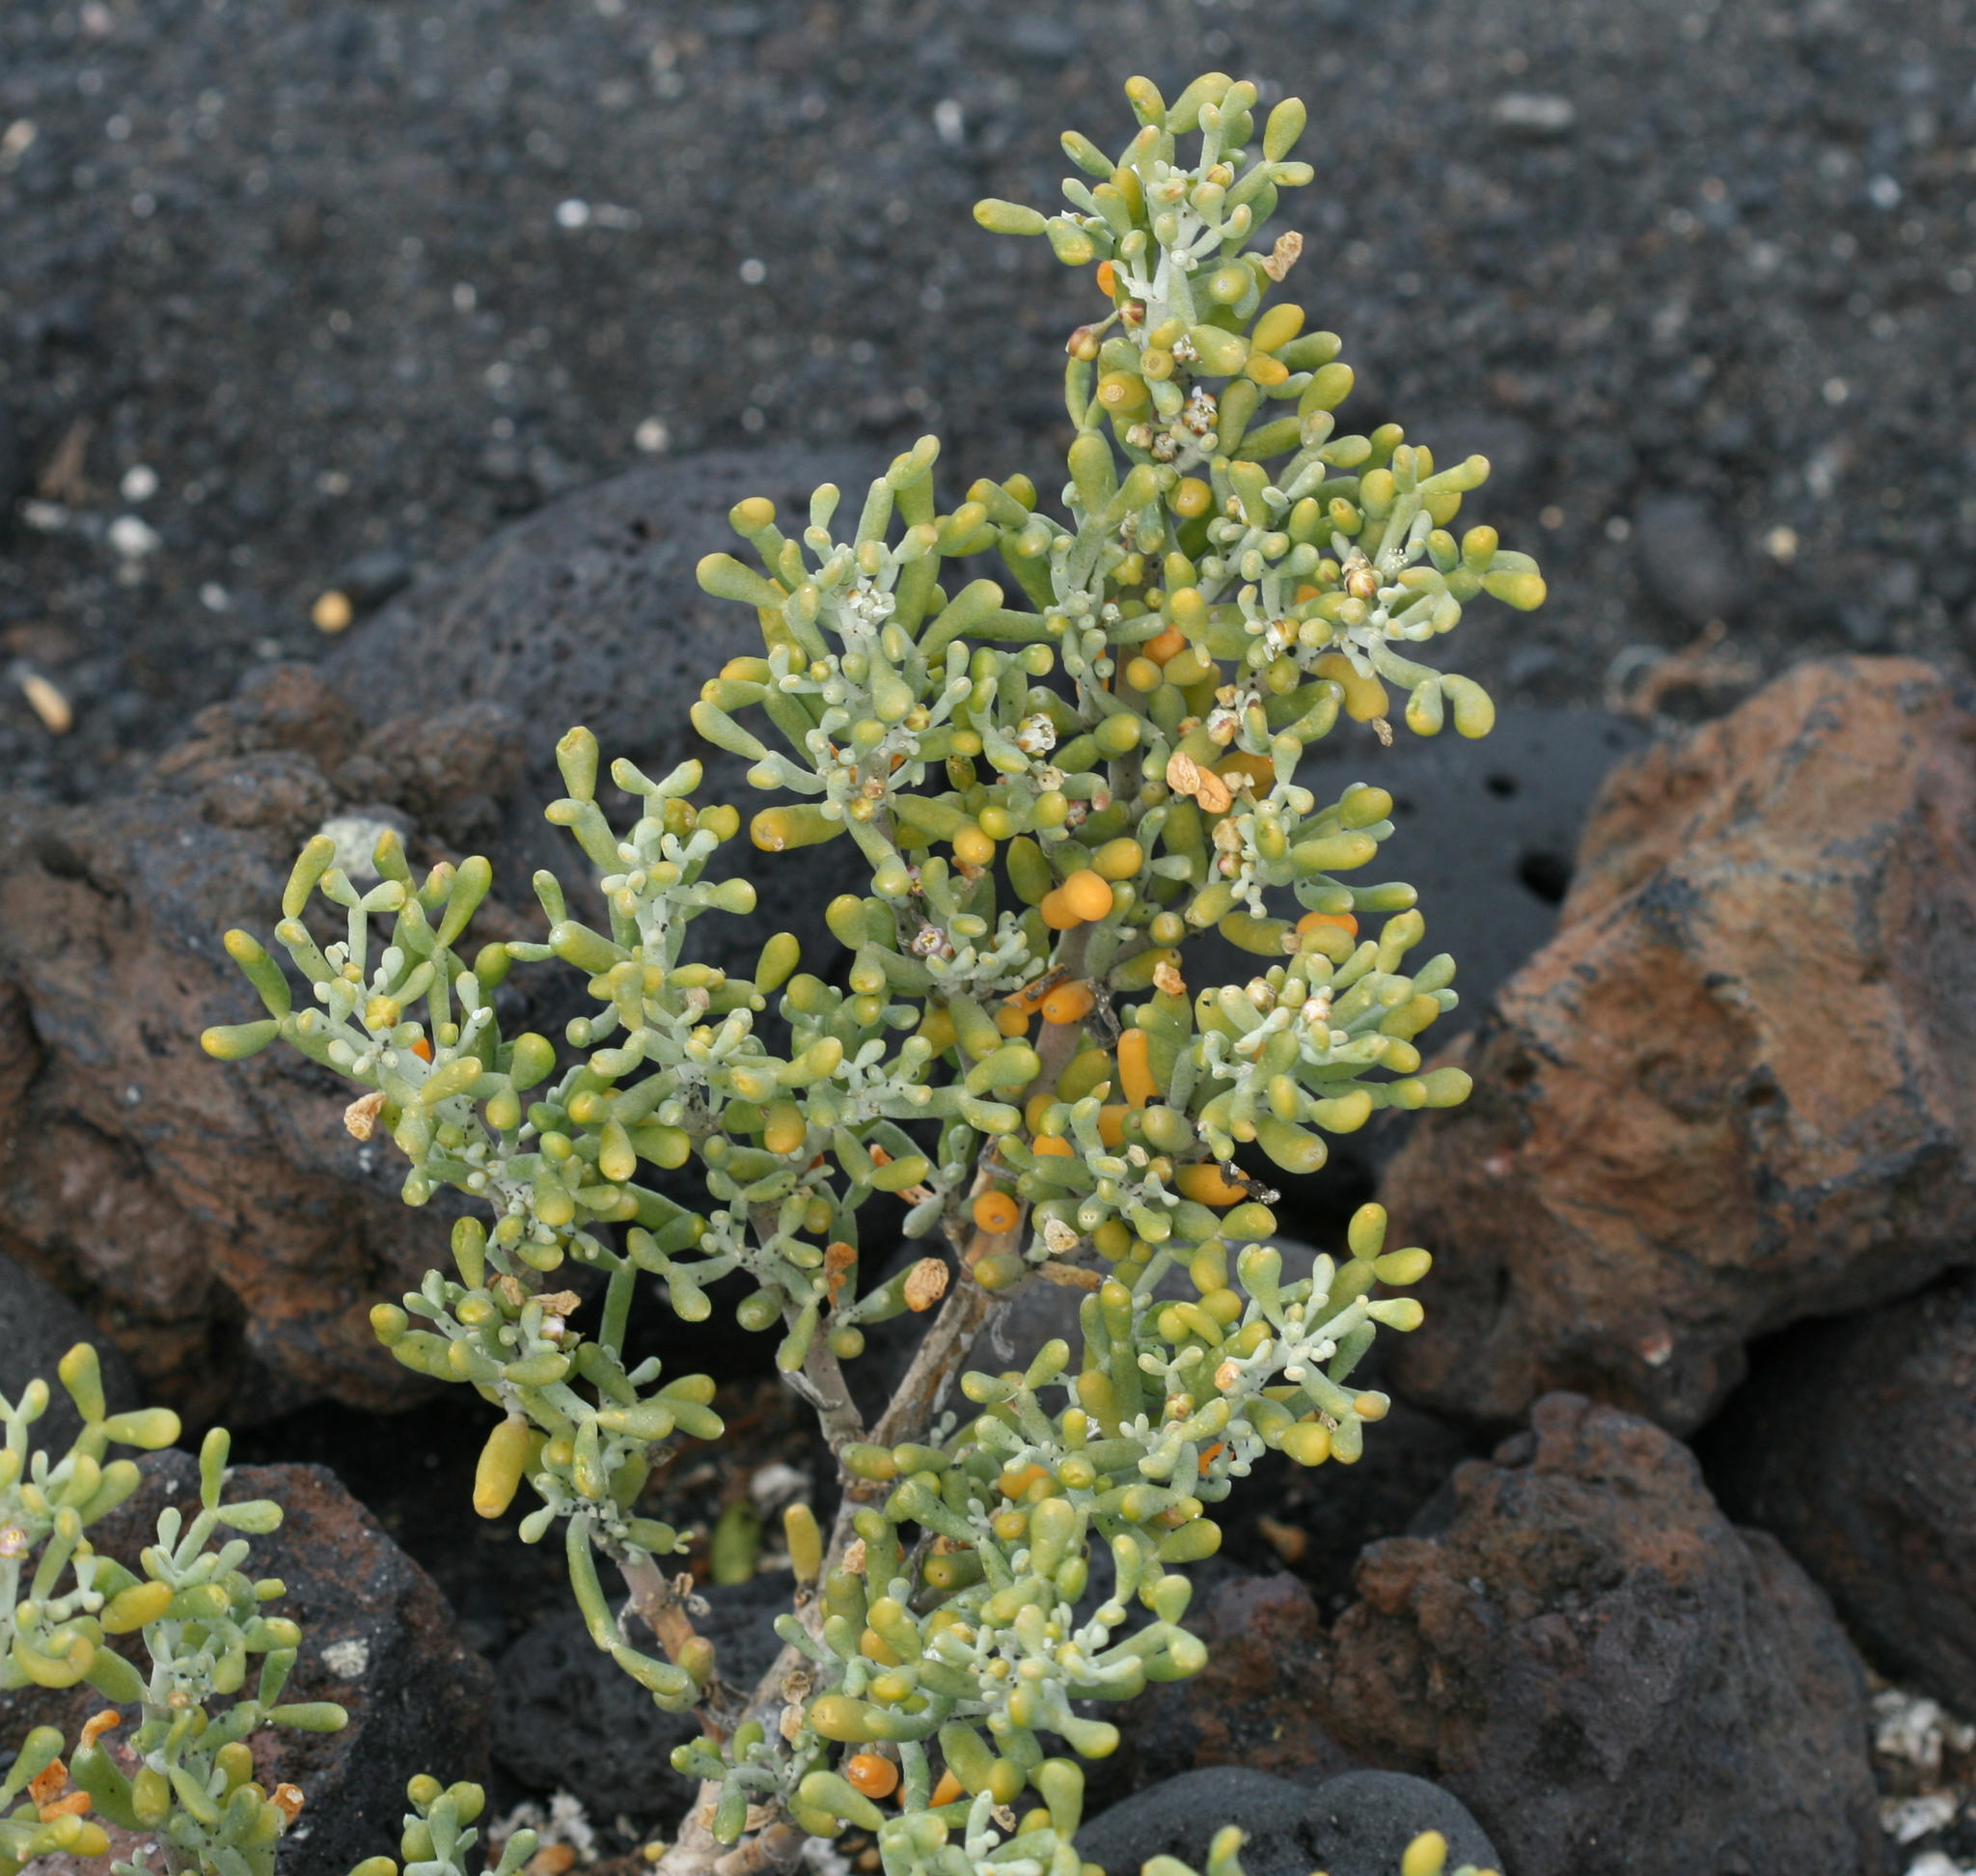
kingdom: Plantae
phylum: Tracheophyta
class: Magnoliopsida
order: Zygophyllales
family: Zygophyllaceae
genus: Tetraena
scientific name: Tetraena fontanesii
